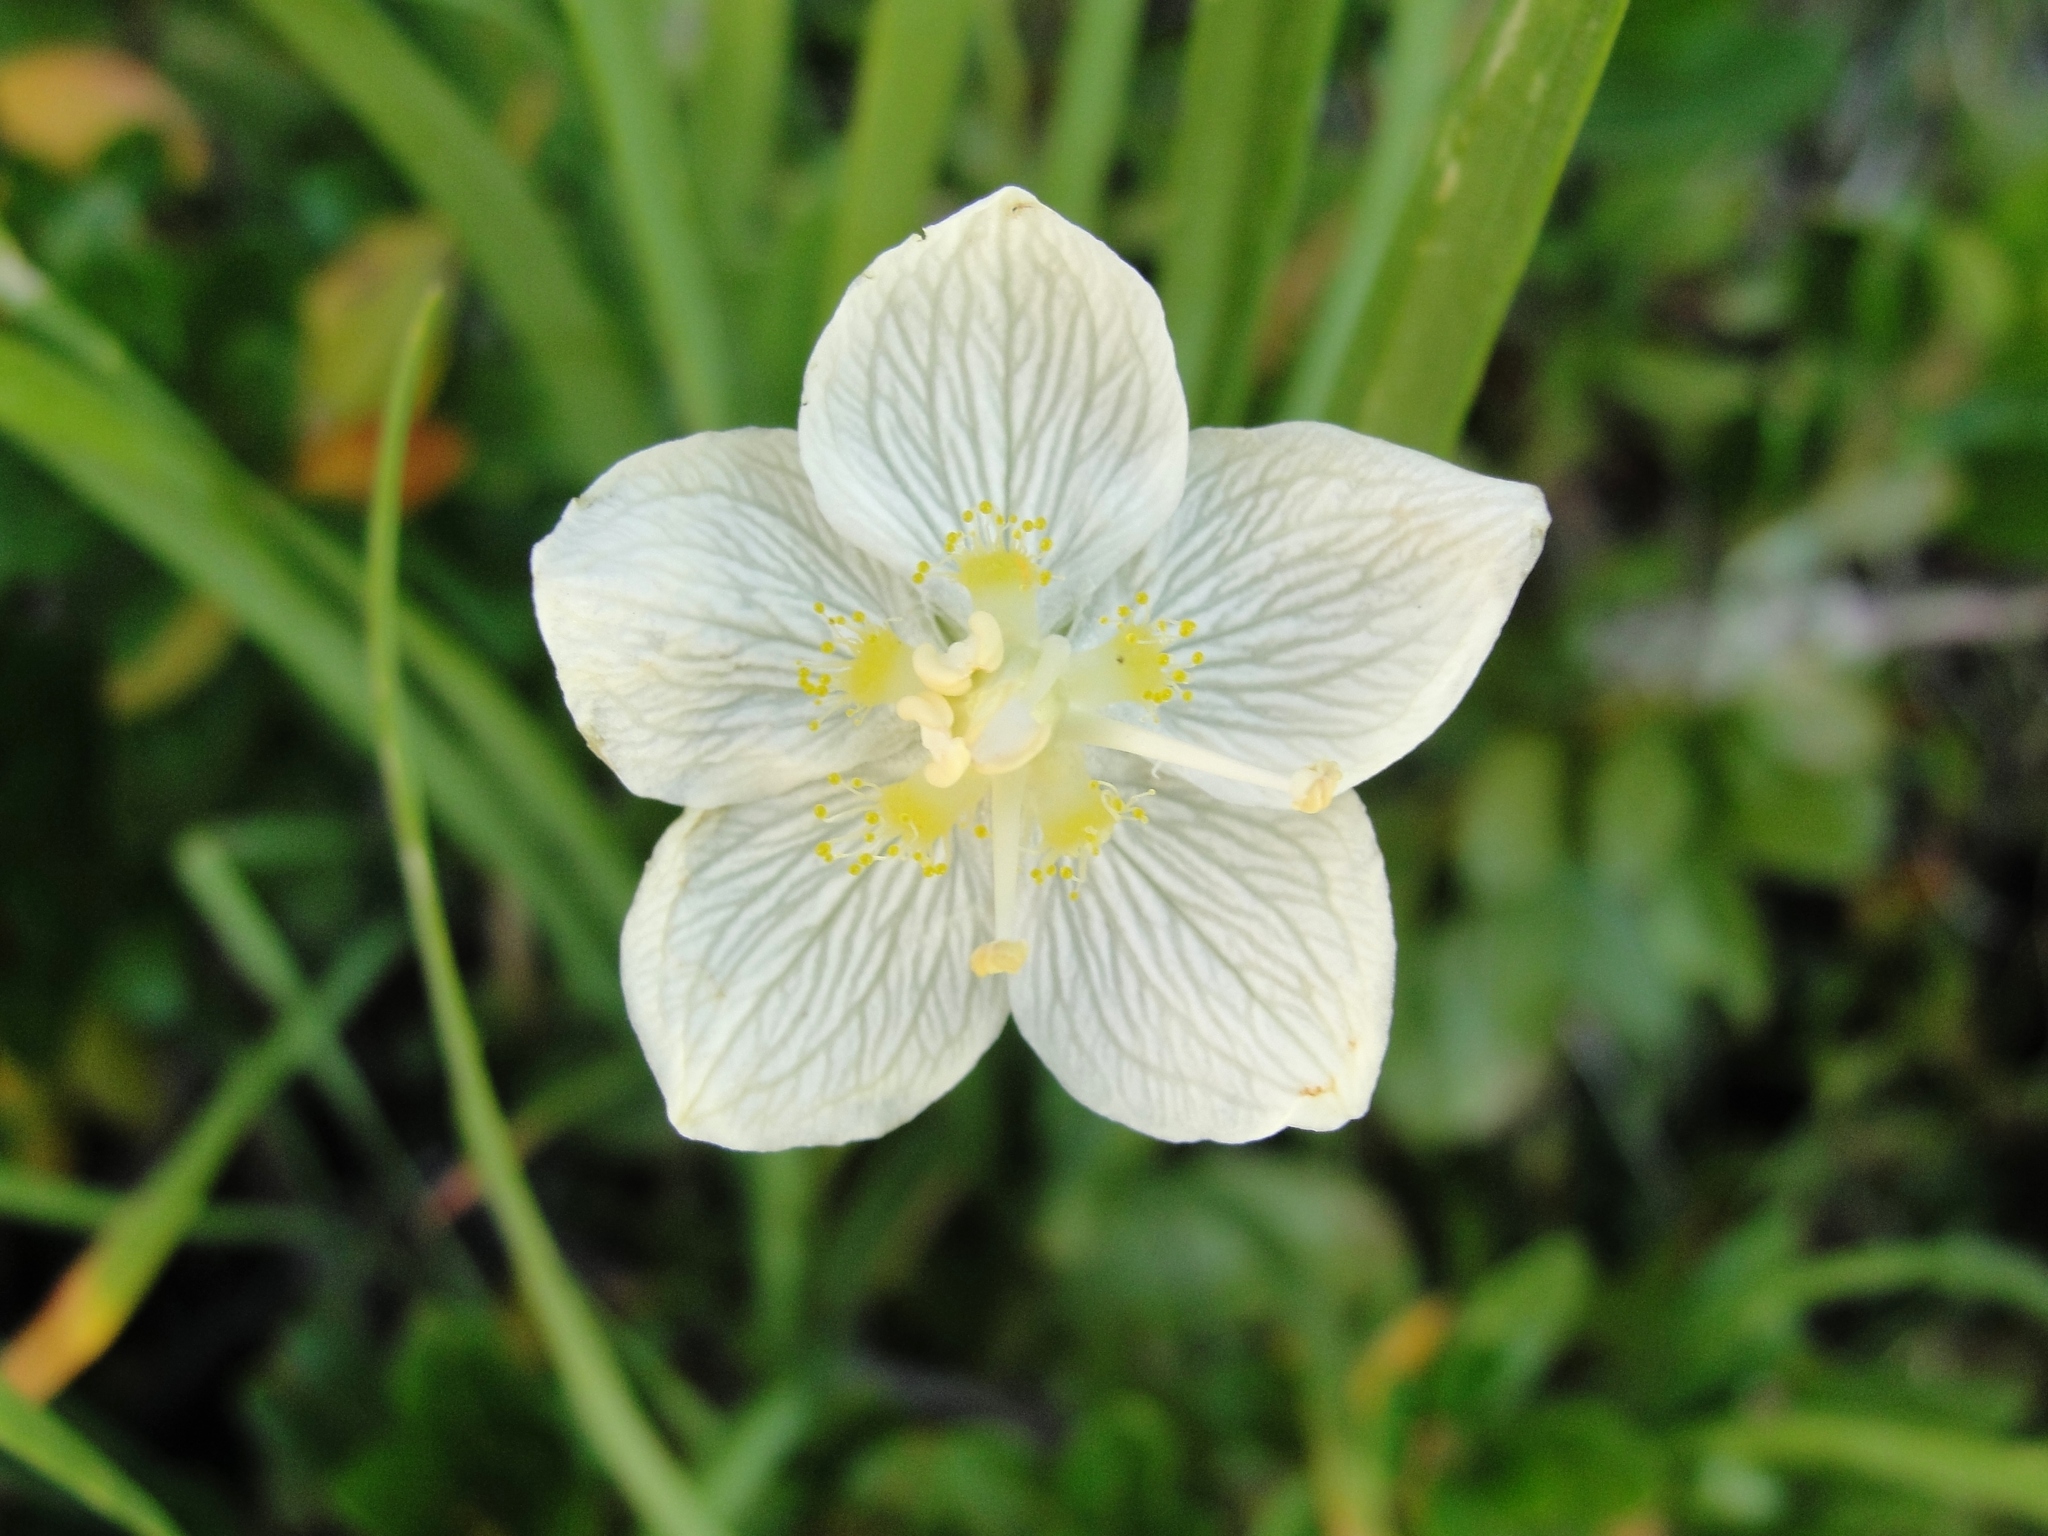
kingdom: Plantae
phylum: Tracheophyta
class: Magnoliopsida
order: Celastrales
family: Parnassiaceae
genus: Parnassia
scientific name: Parnassia palustris
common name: Grass-of-parnassus
